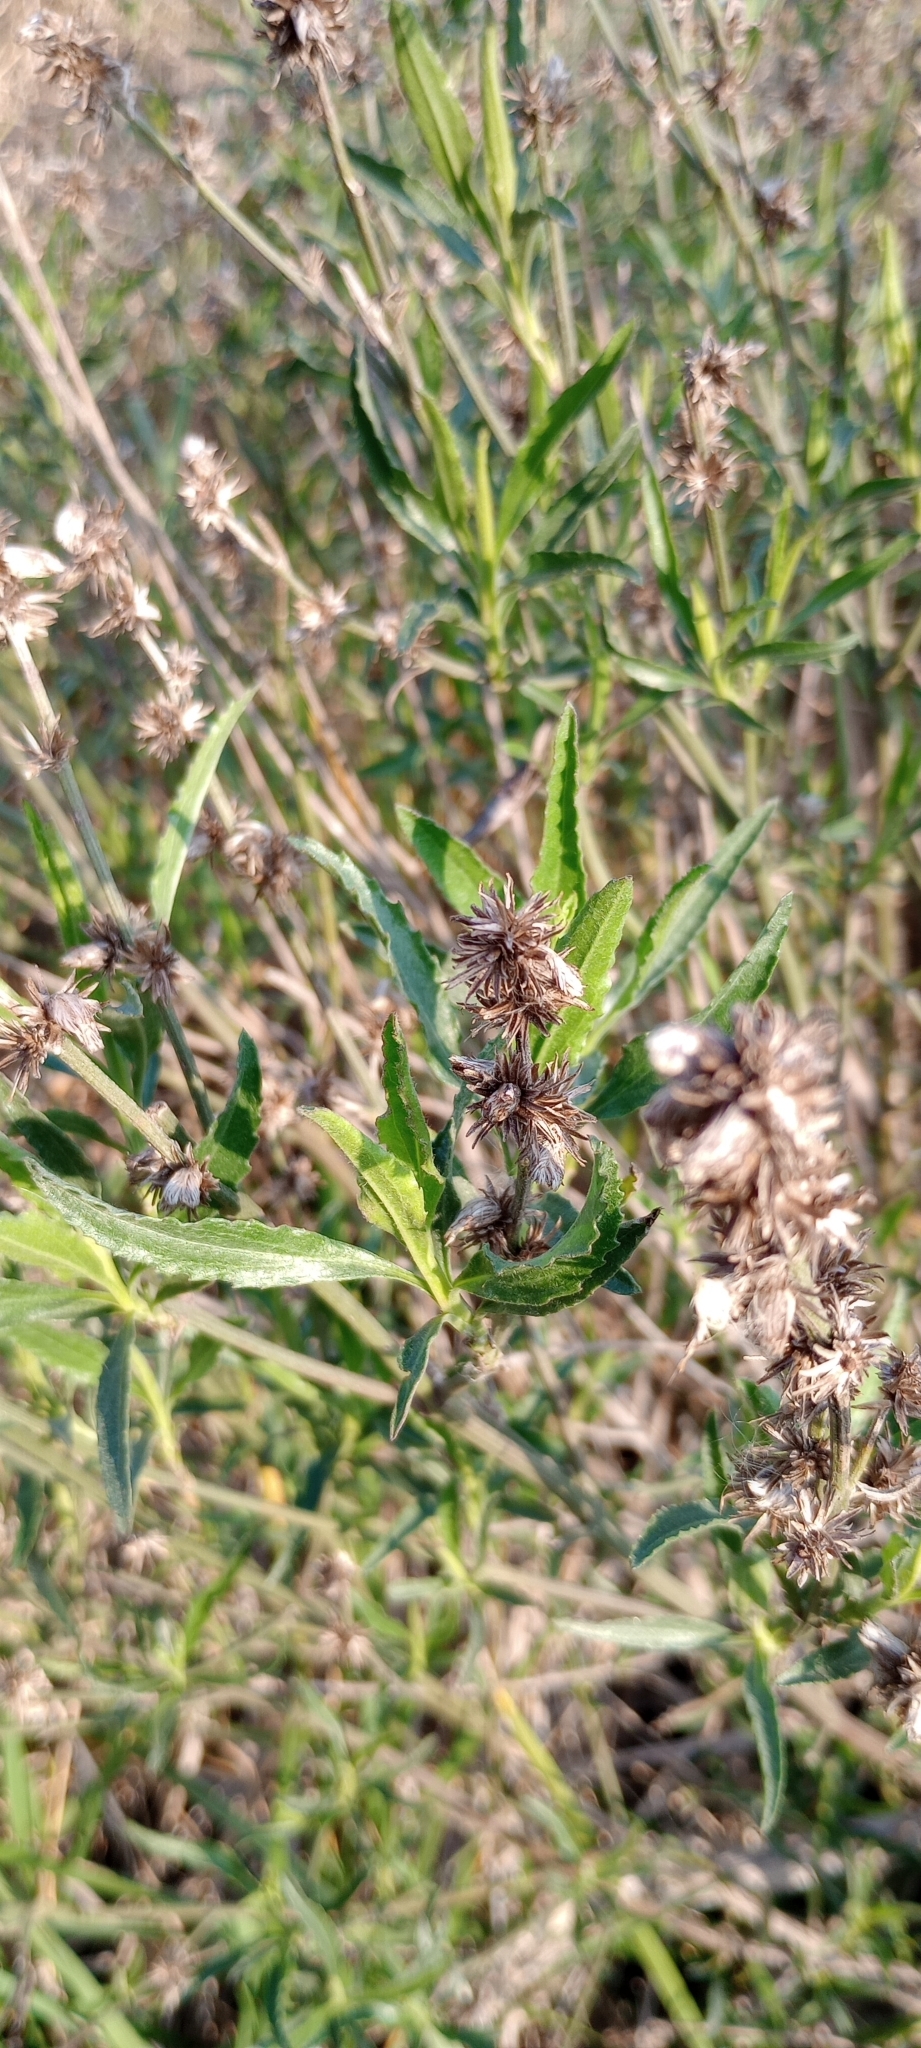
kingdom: Plantae
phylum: Tracheophyta
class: Magnoliopsida
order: Asterales
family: Asteraceae
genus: Baccharis
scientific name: Baccharis punctulata
